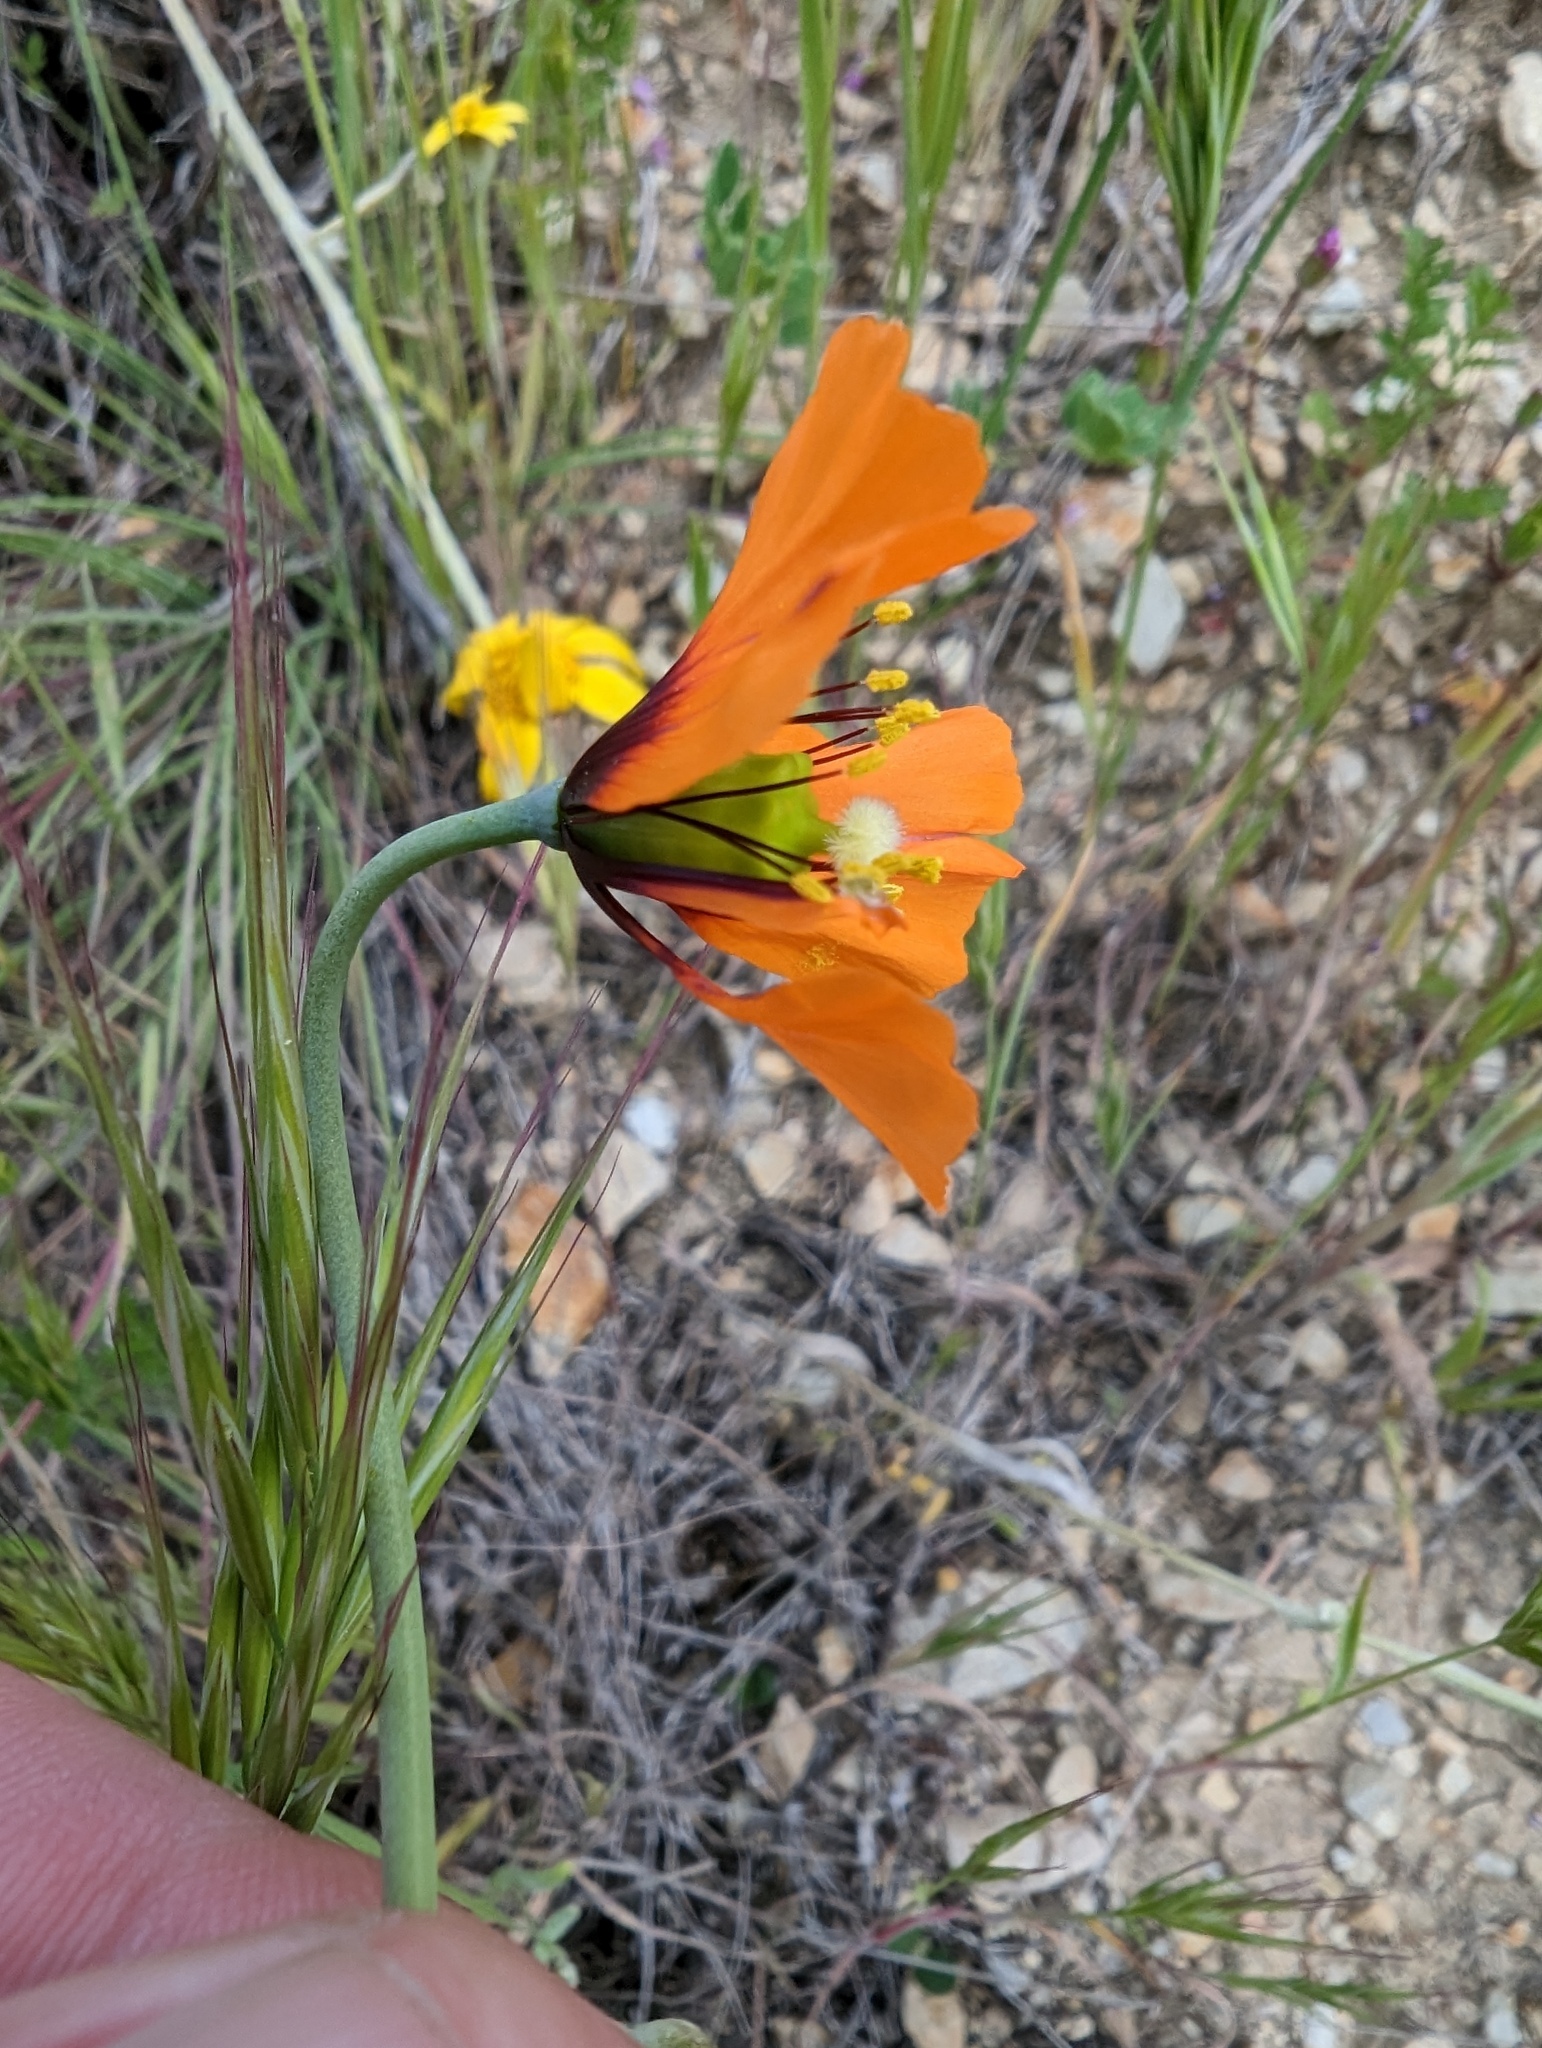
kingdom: Plantae
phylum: Tracheophyta
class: Magnoliopsida
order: Ranunculales
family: Papaveraceae
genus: Stylomecon
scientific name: Stylomecon heterophylla
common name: Flaming-poppy
